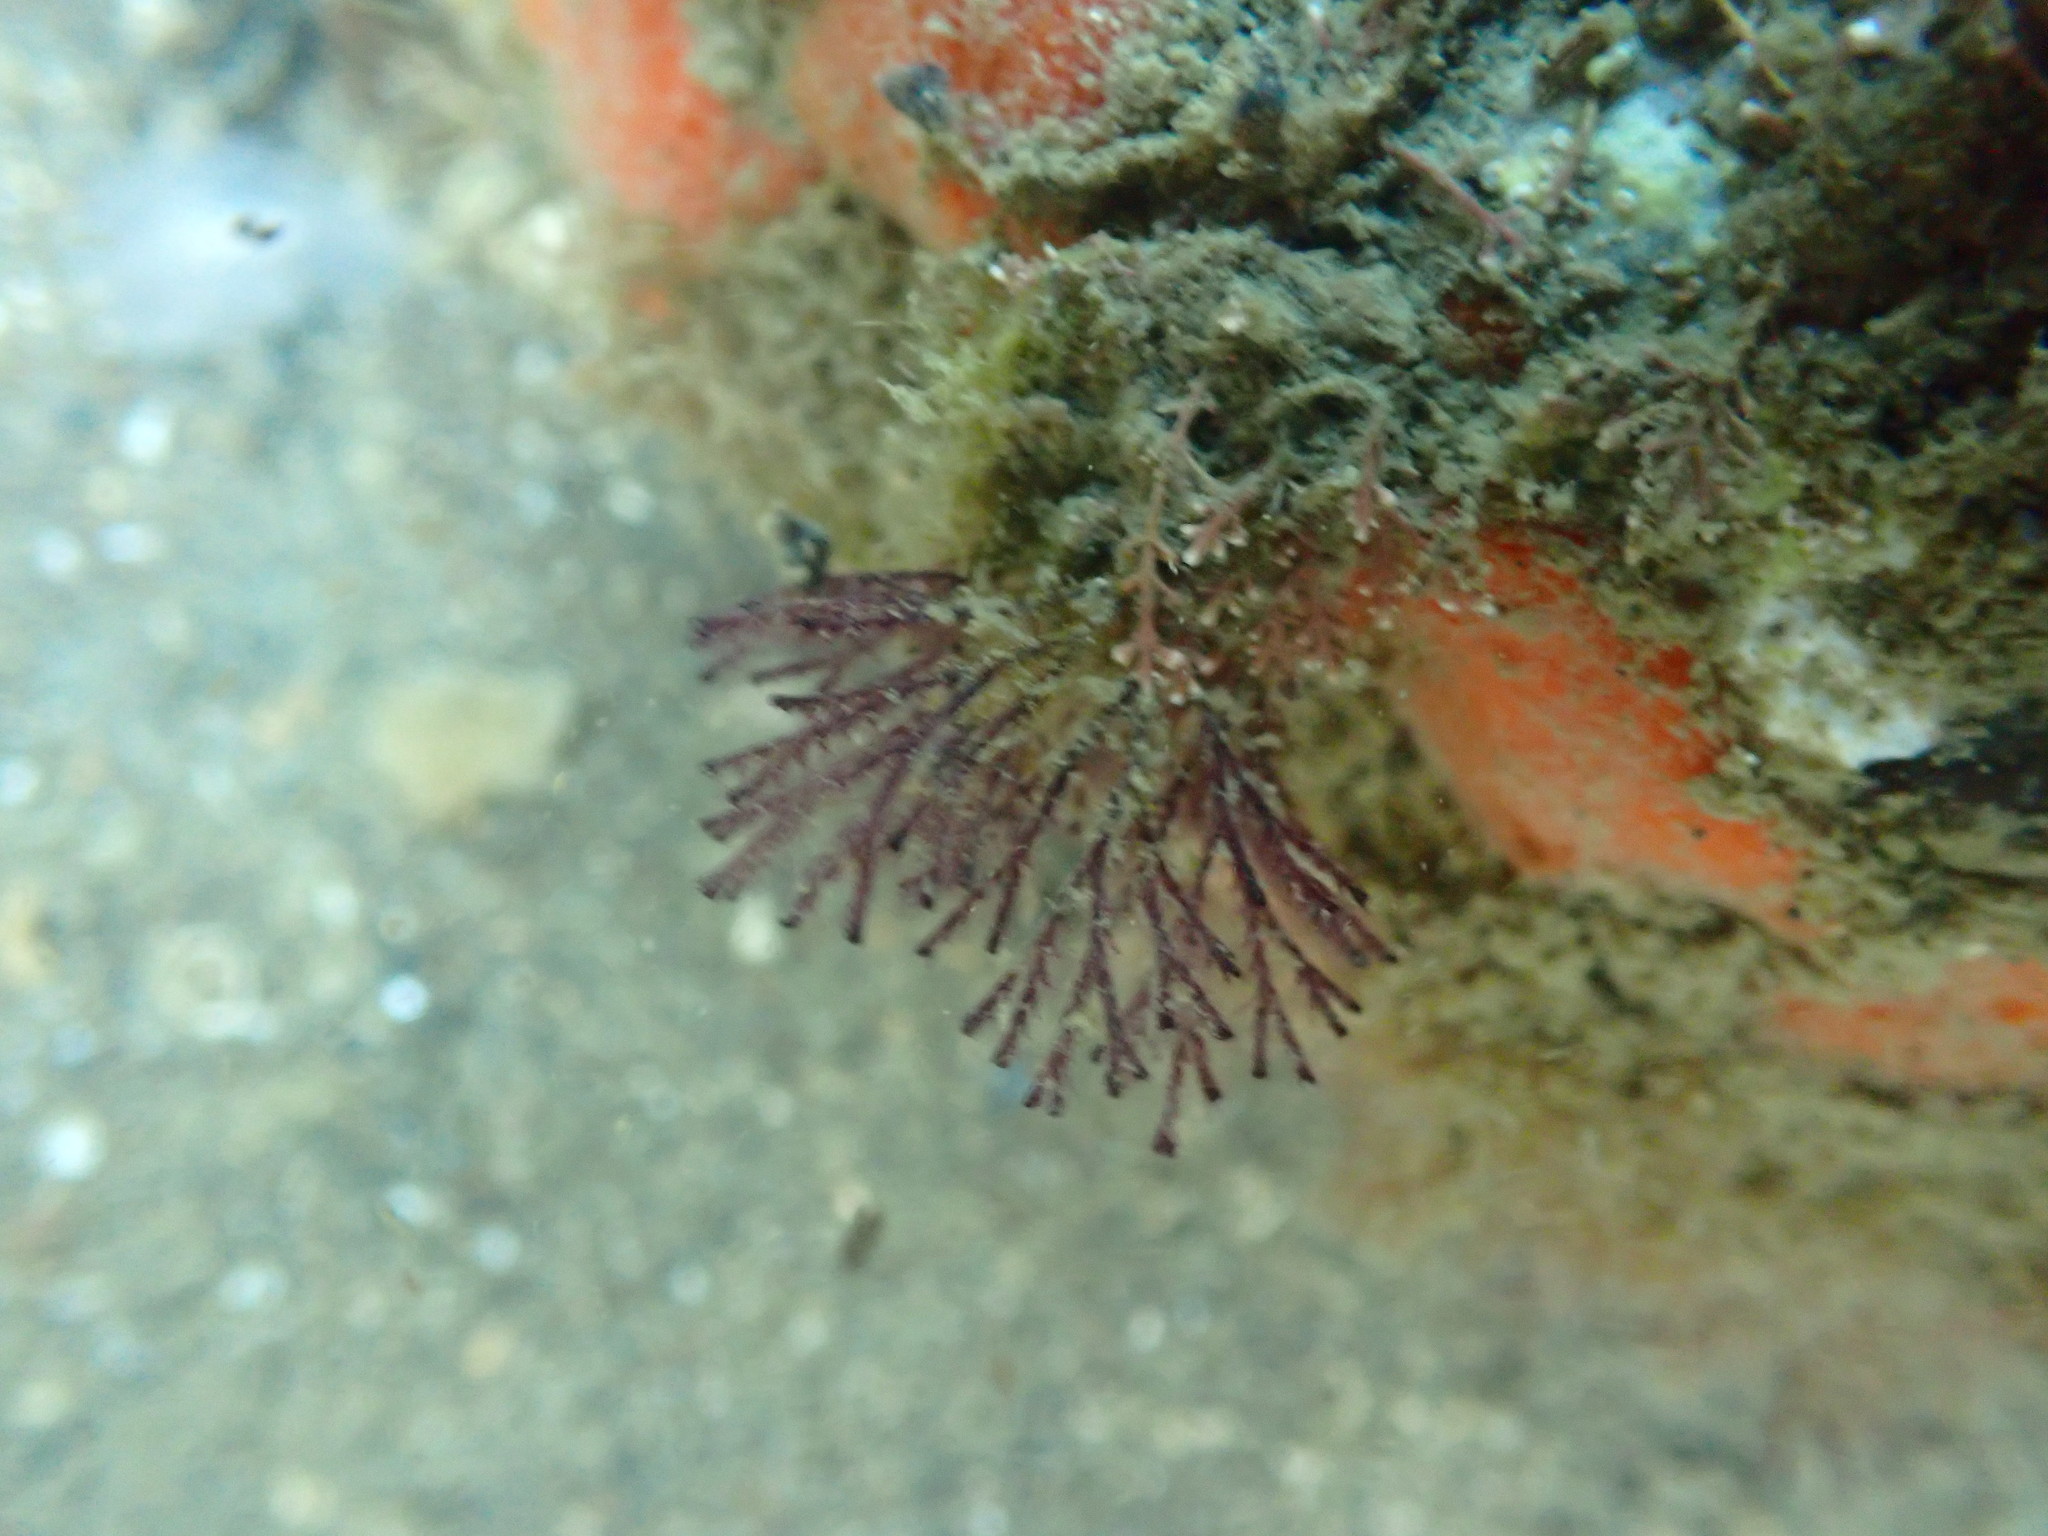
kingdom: Animalia
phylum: Bryozoa
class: Gymnolaemata
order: Cheilostomatida
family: Bugulidae
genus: Bugula
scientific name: Bugula neritina
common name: Brown bryozoan
